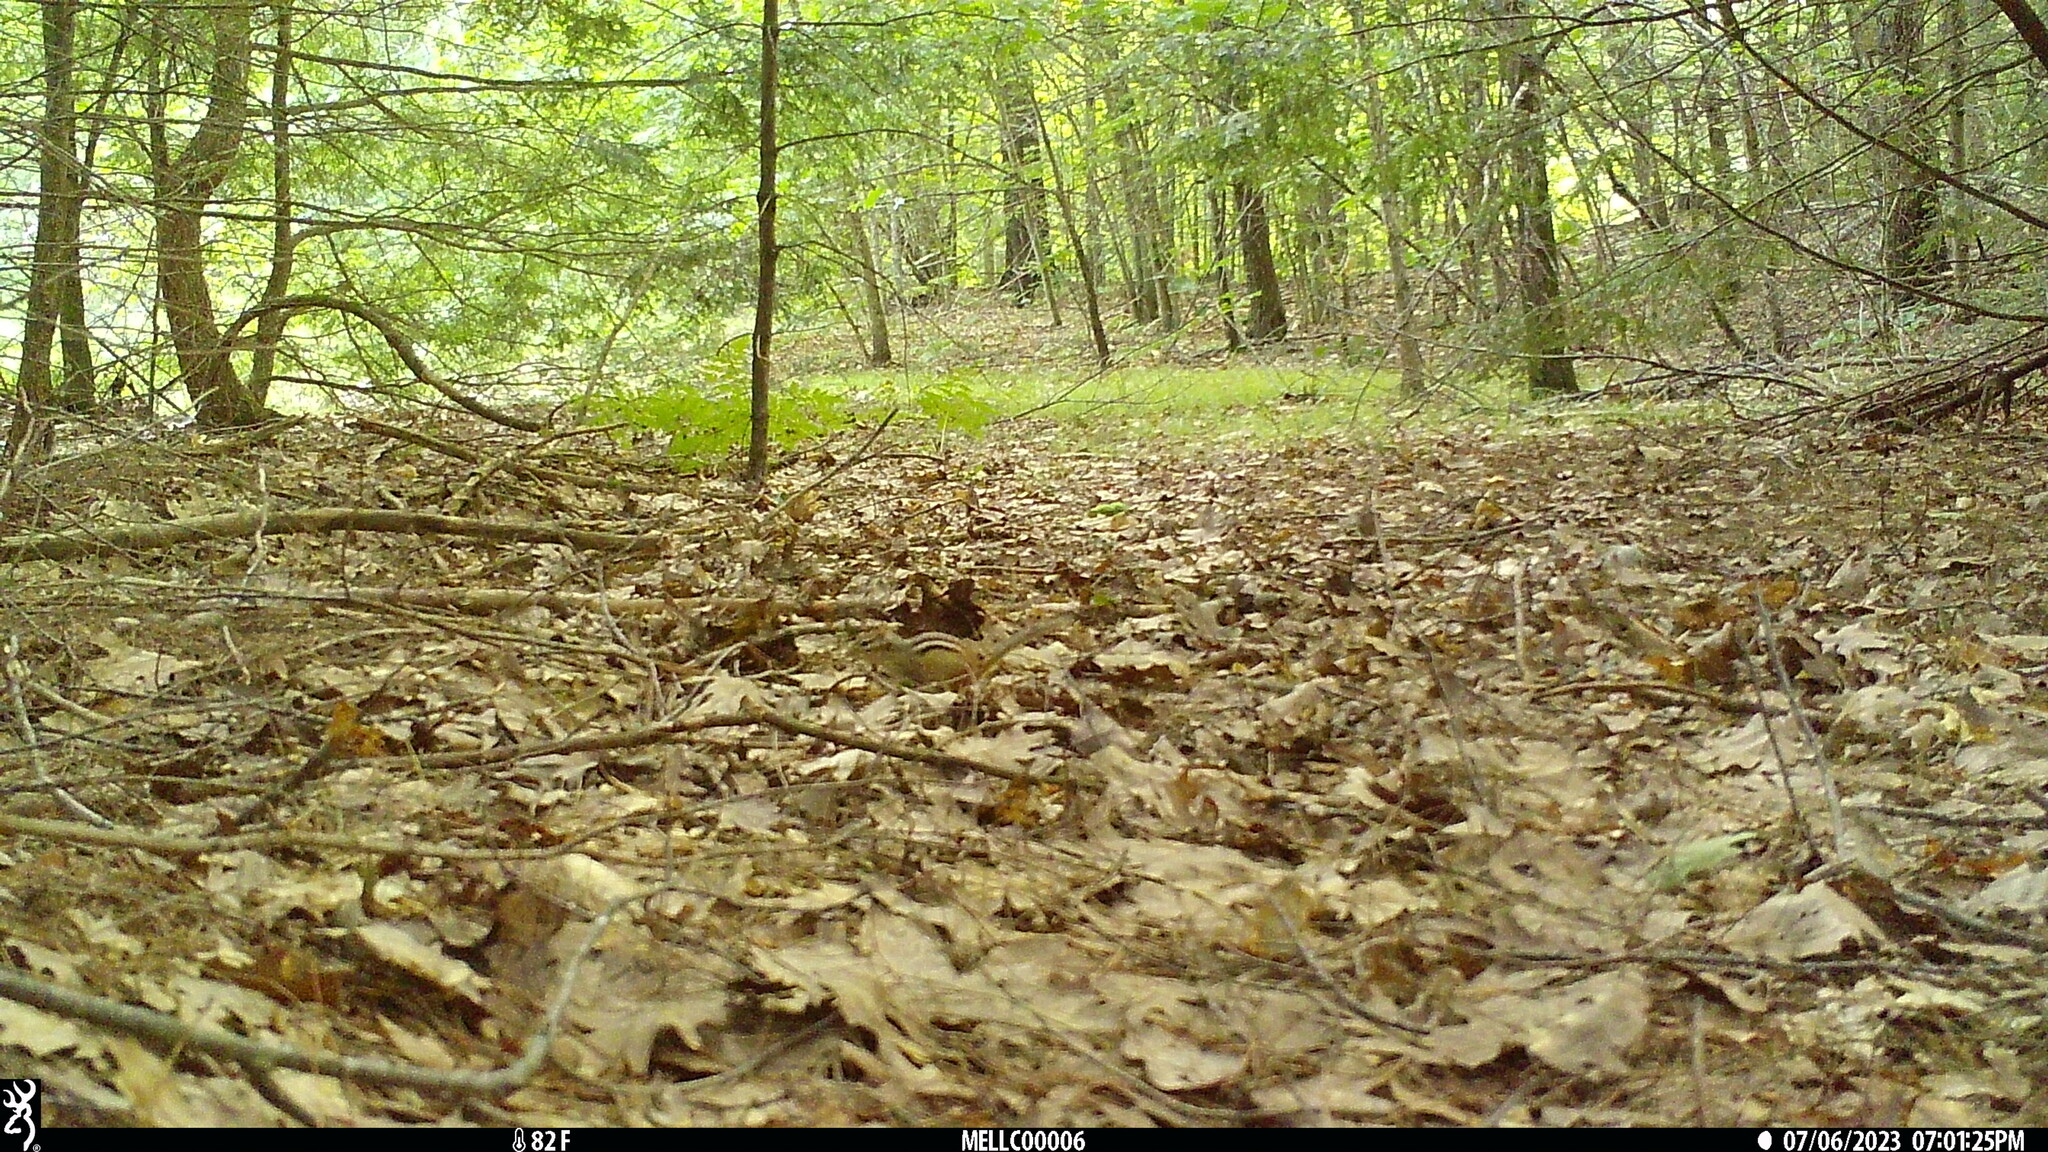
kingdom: Animalia
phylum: Chordata
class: Mammalia
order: Rodentia
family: Sciuridae
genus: Tamias
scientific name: Tamias striatus
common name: Eastern chipmunk
